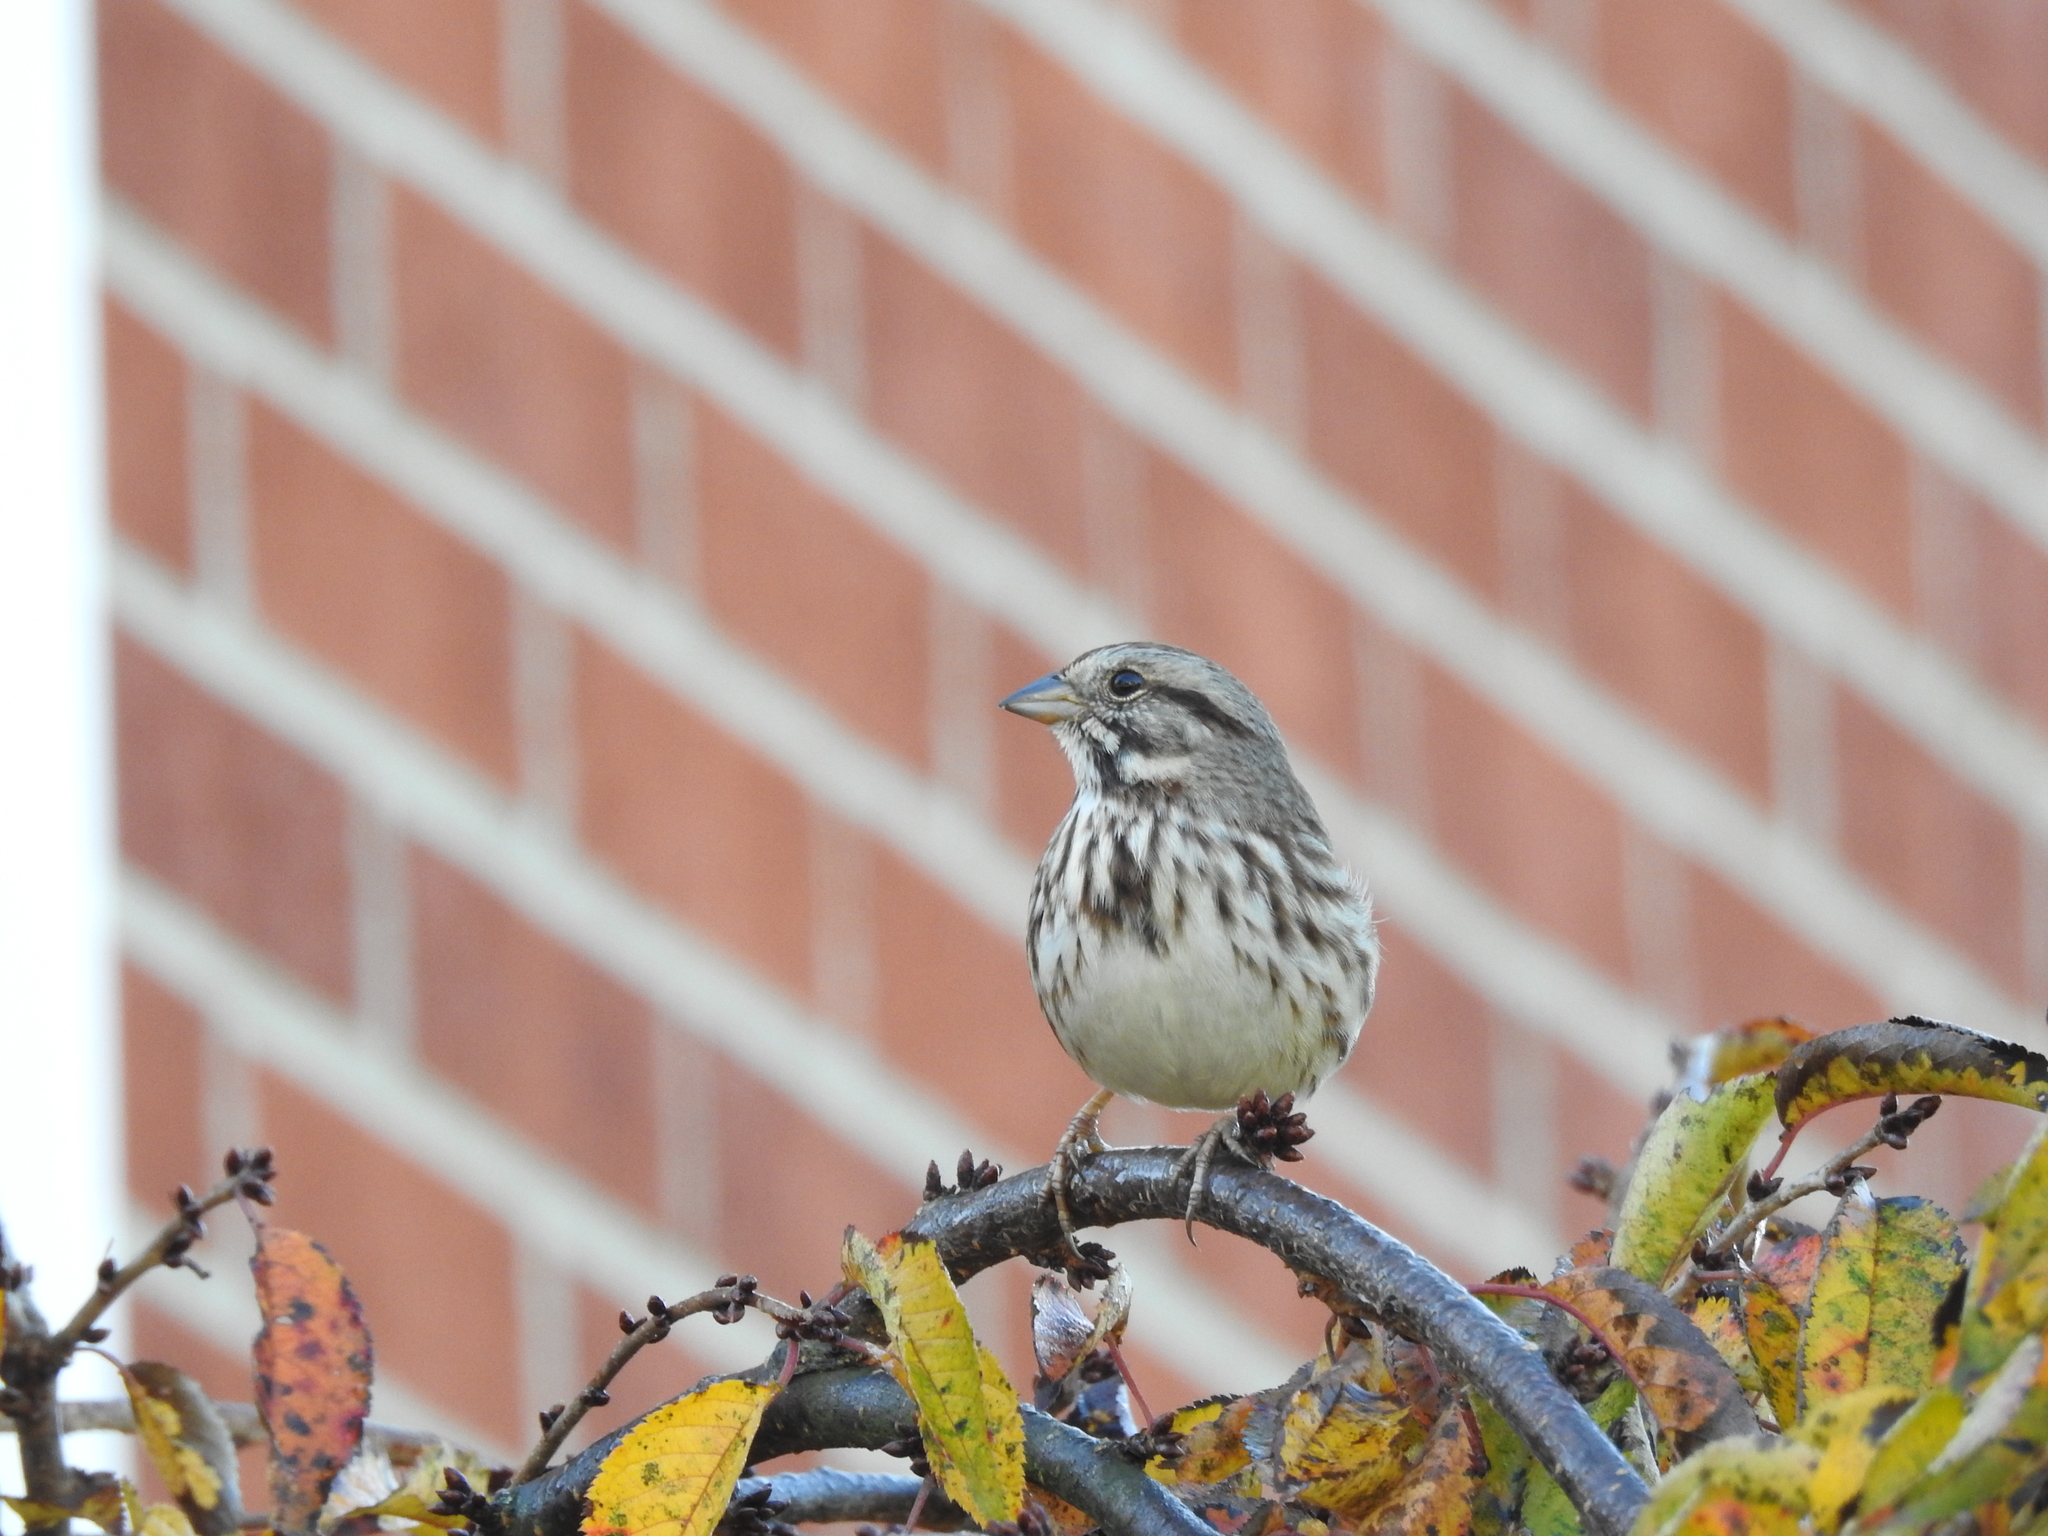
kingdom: Animalia
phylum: Chordata
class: Aves
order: Passeriformes
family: Passerellidae
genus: Melospiza
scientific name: Melospiza melodia
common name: Song sparrow
